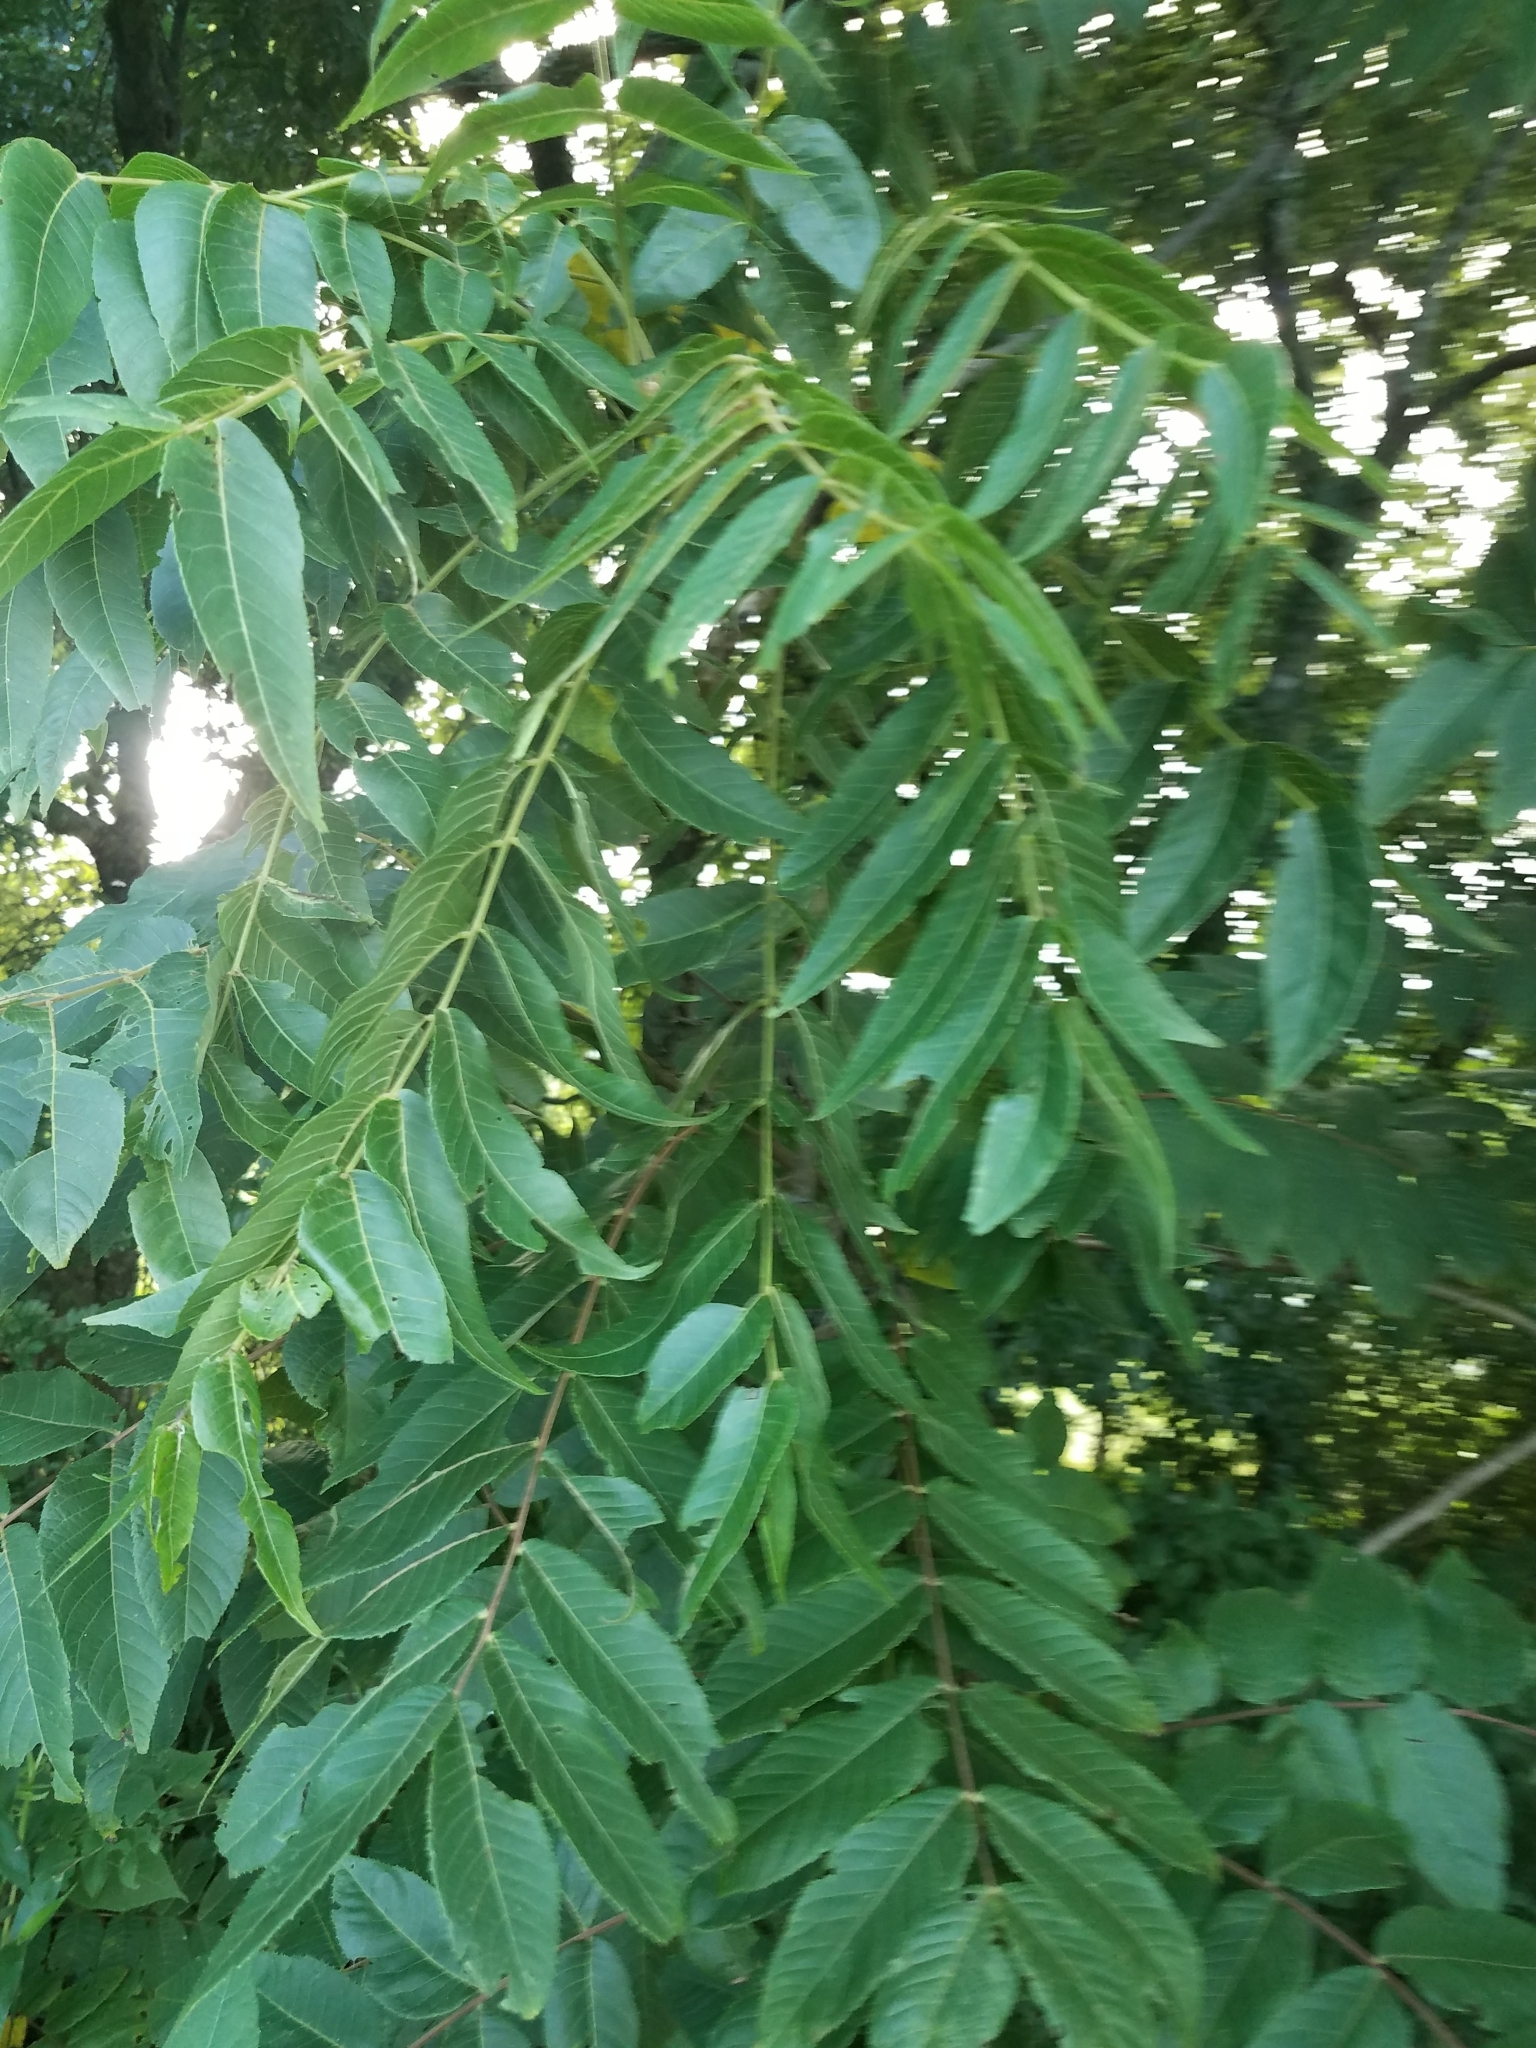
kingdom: Plantae
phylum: Tracheophyta
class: Magnoliopsida
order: Fagales
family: Juglandaceae
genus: Juglans
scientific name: Juglans nigra
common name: Black walnut
